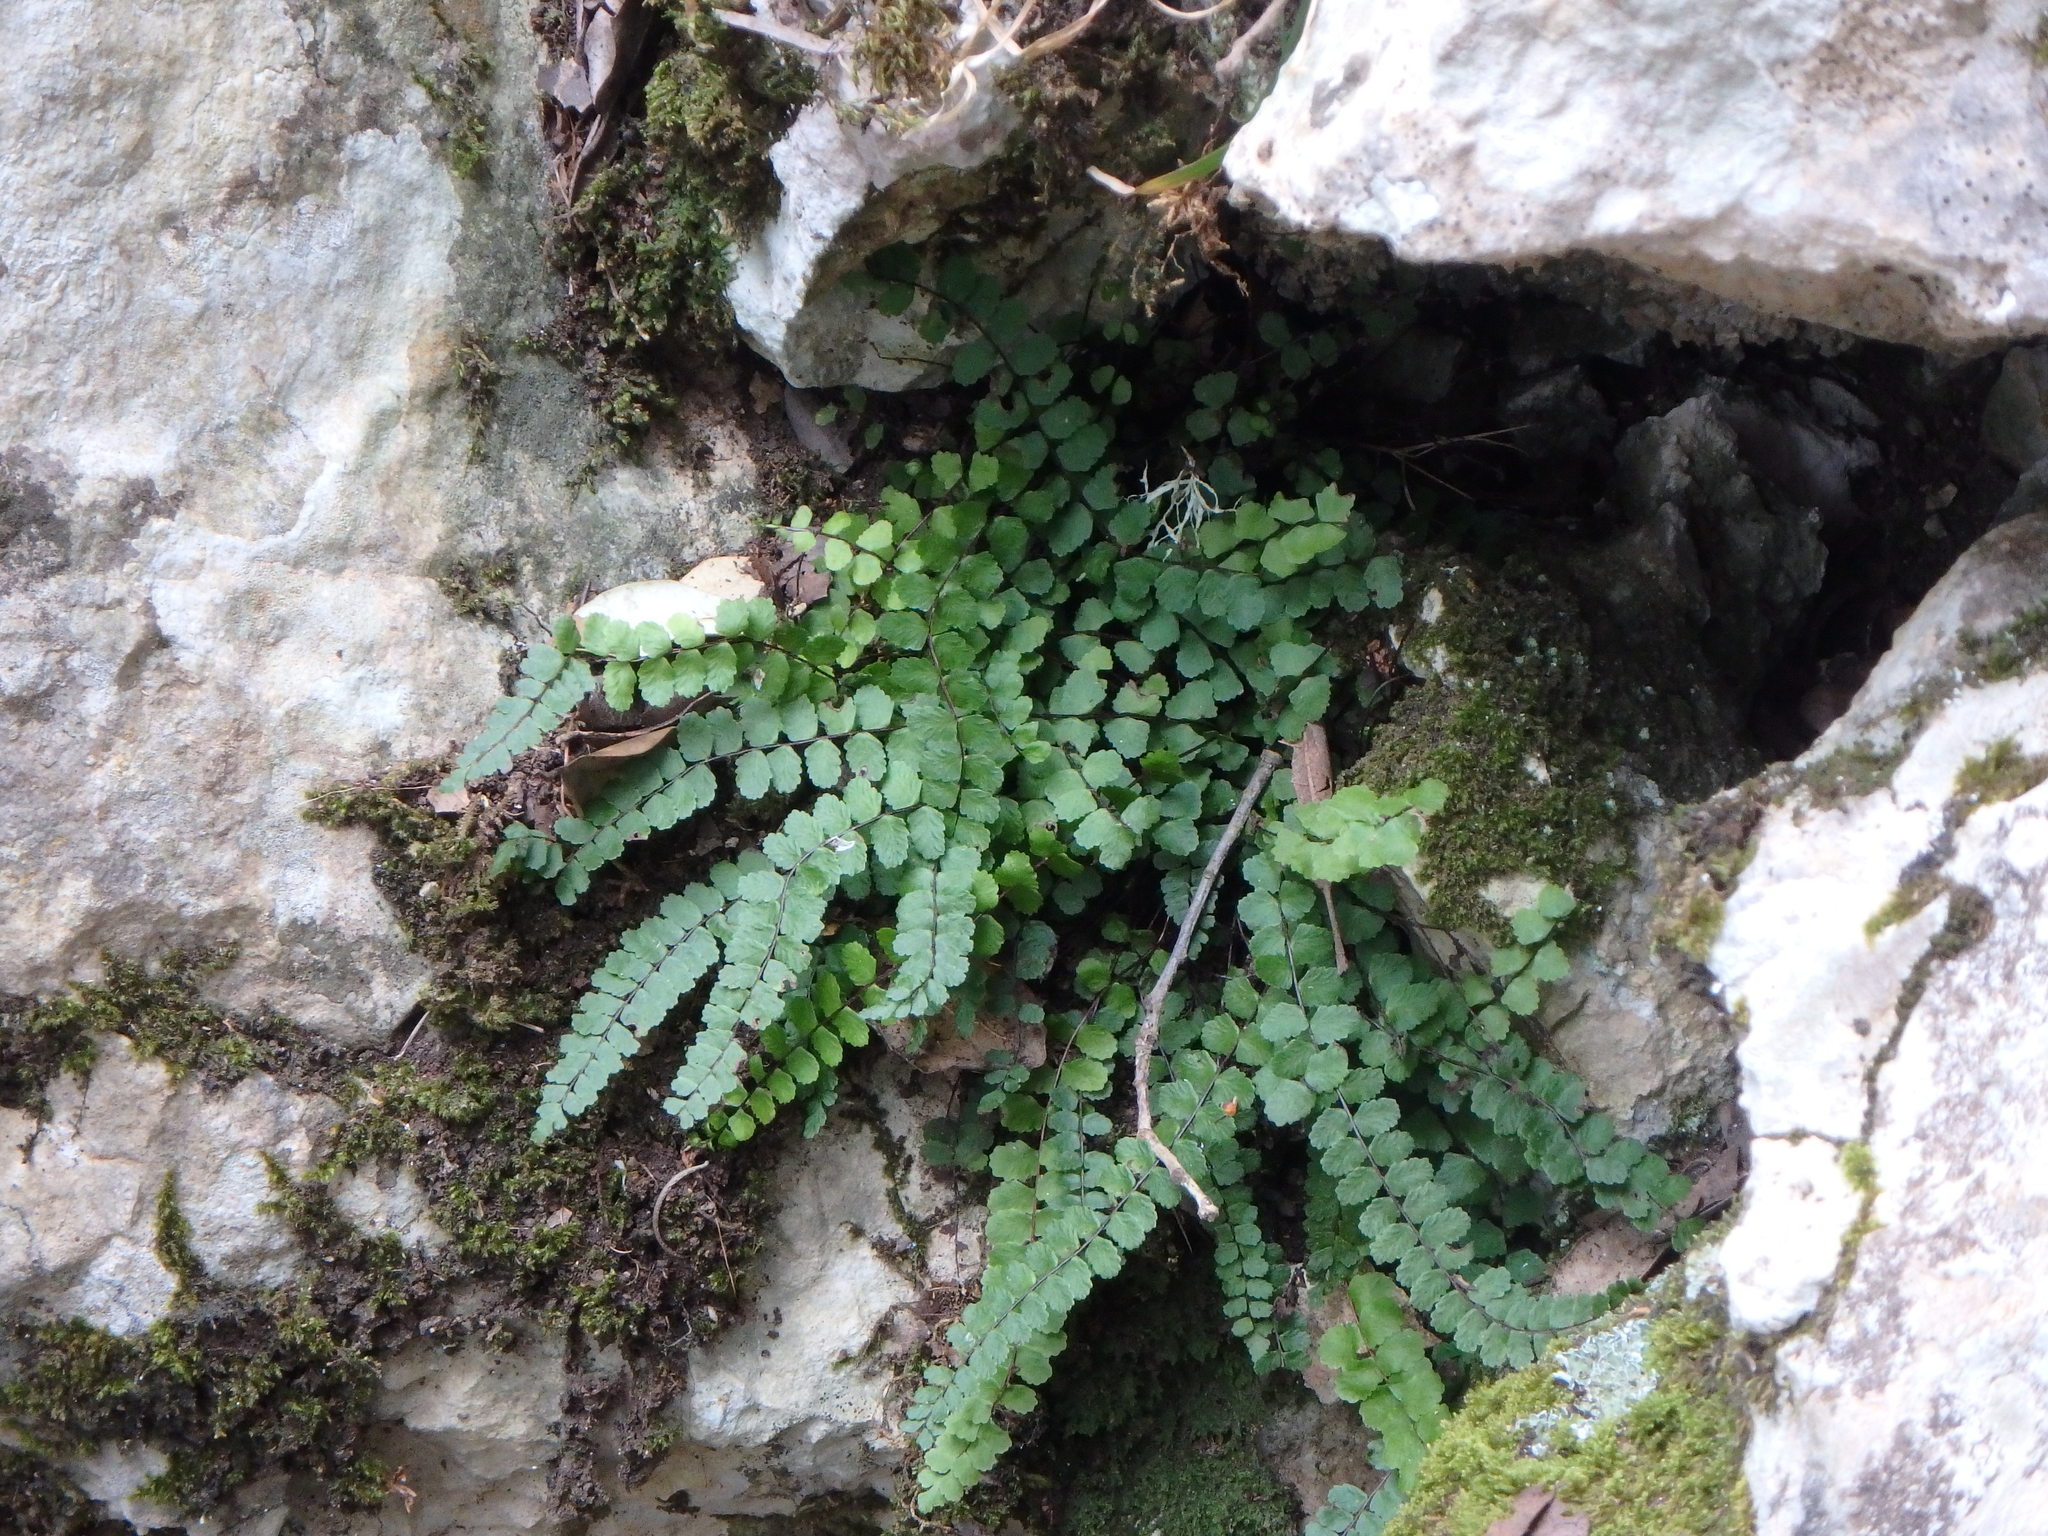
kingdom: Plantae
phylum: Tracheophyta
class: Polypodiopsida
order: Polypodiales
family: Aspleniaceae
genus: Asplenium
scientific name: Asplenium trichomanes
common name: Maidenhair spleenwort
